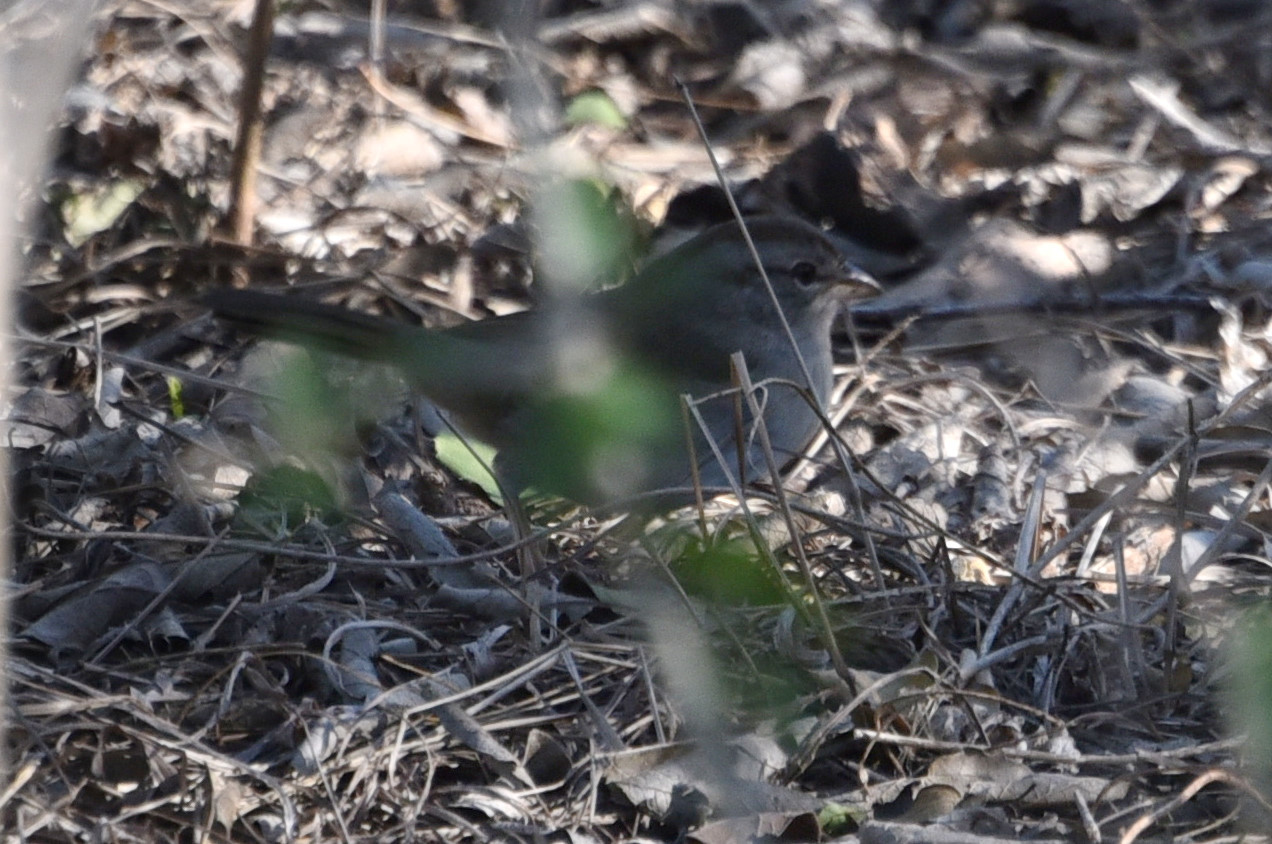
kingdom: Animalia
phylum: Chordata
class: Aves
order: Passeriformes
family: Passerellidae
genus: Arremonops
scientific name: Arremonops rufivirgatus
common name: Olive sparrow
